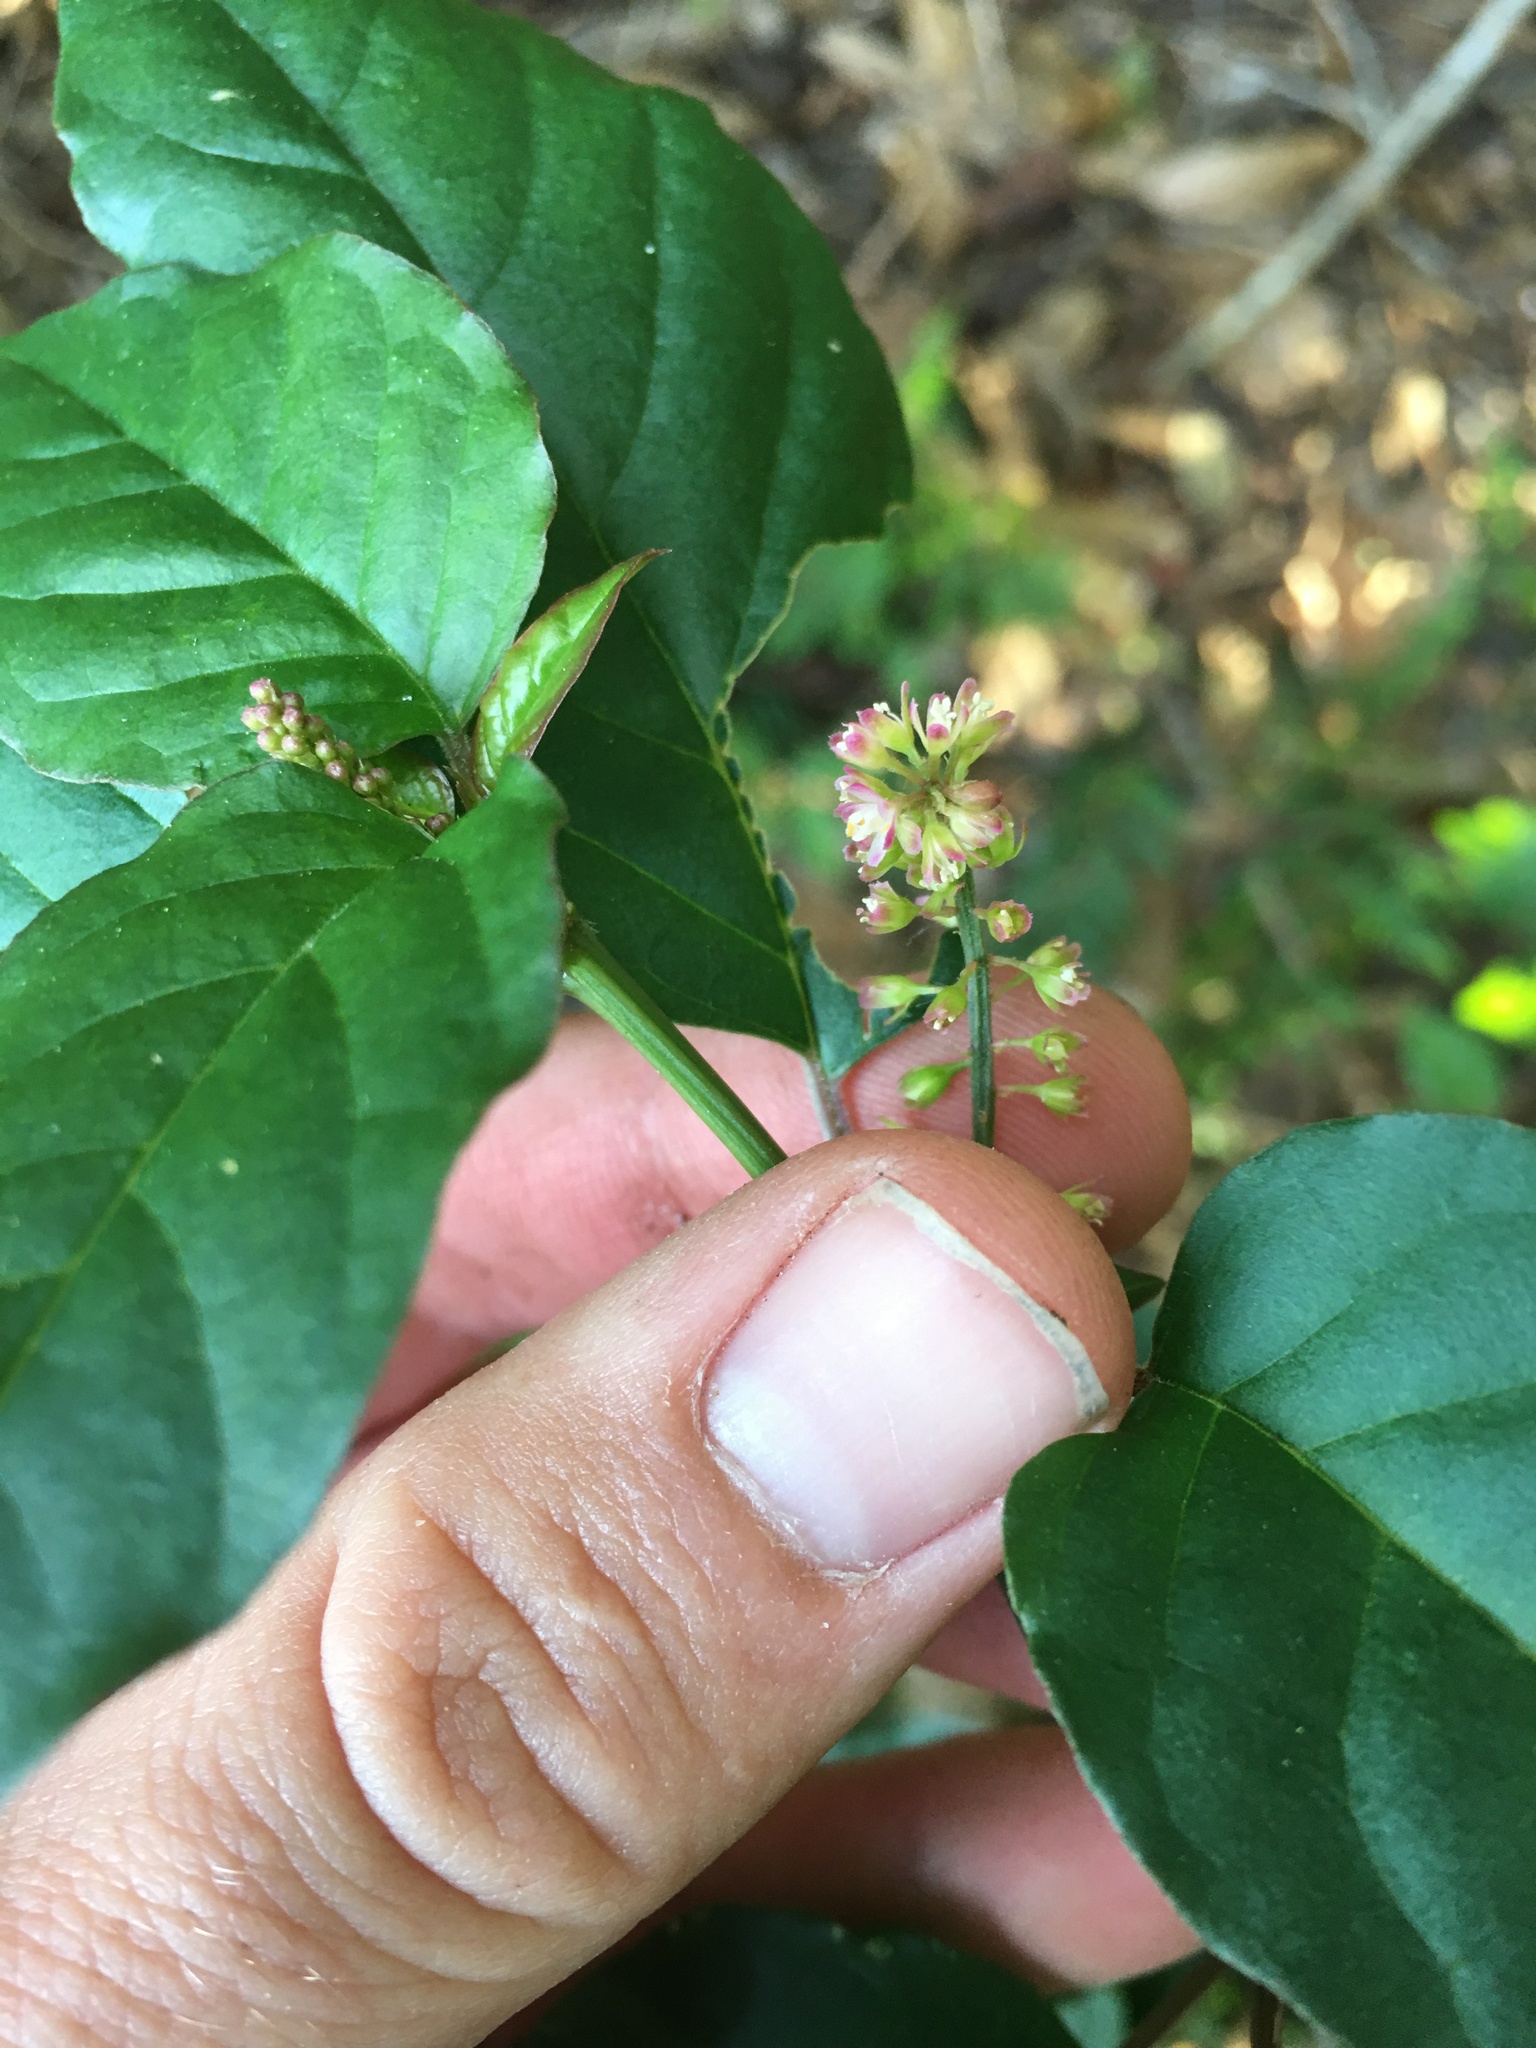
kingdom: Plantae
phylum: Tracheophyta
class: Magnoliopsida
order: Caryophyllales
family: Phytolaccaceae
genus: Rivina
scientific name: Rivina humilis
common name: Rougeplant
